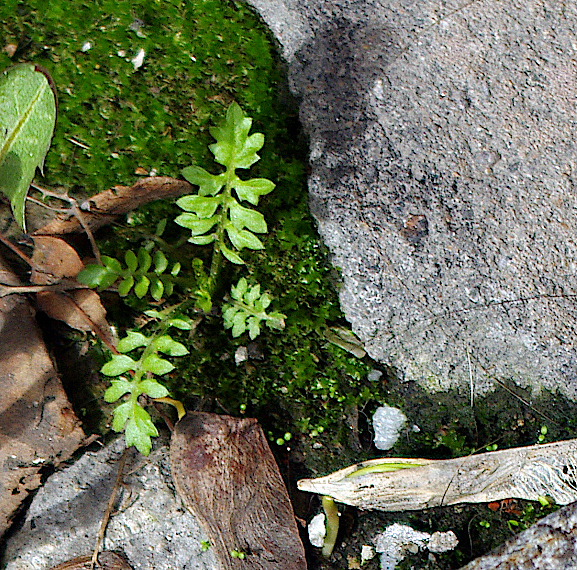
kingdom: Plantae
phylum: Tracheophyta
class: Magnoliopsida
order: Brassicales
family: Brassicaceae
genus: Rorippa
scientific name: Rorippa palustris
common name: Marsh yellow-cress
